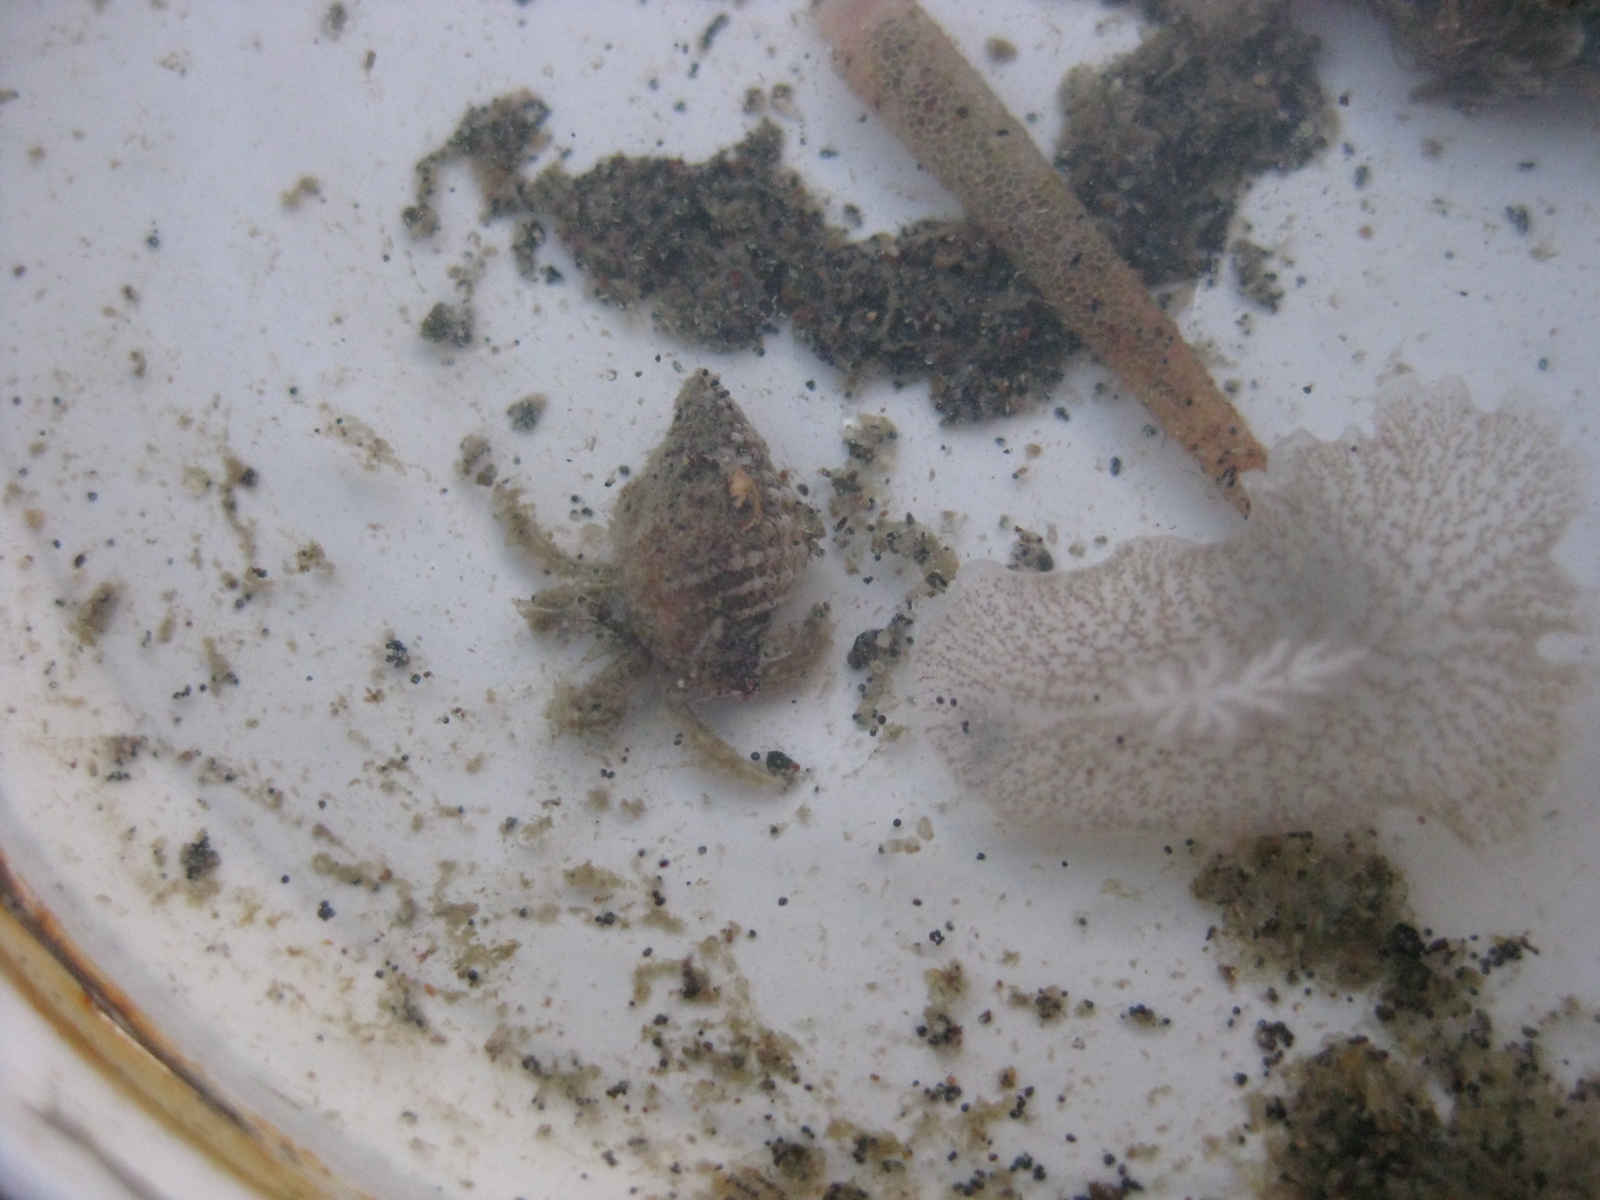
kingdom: Animalia
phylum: Arthropoda
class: Malacostraca
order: Decapoda
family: Paguridae
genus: Pagurus
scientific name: Pagurus novizealandiae
